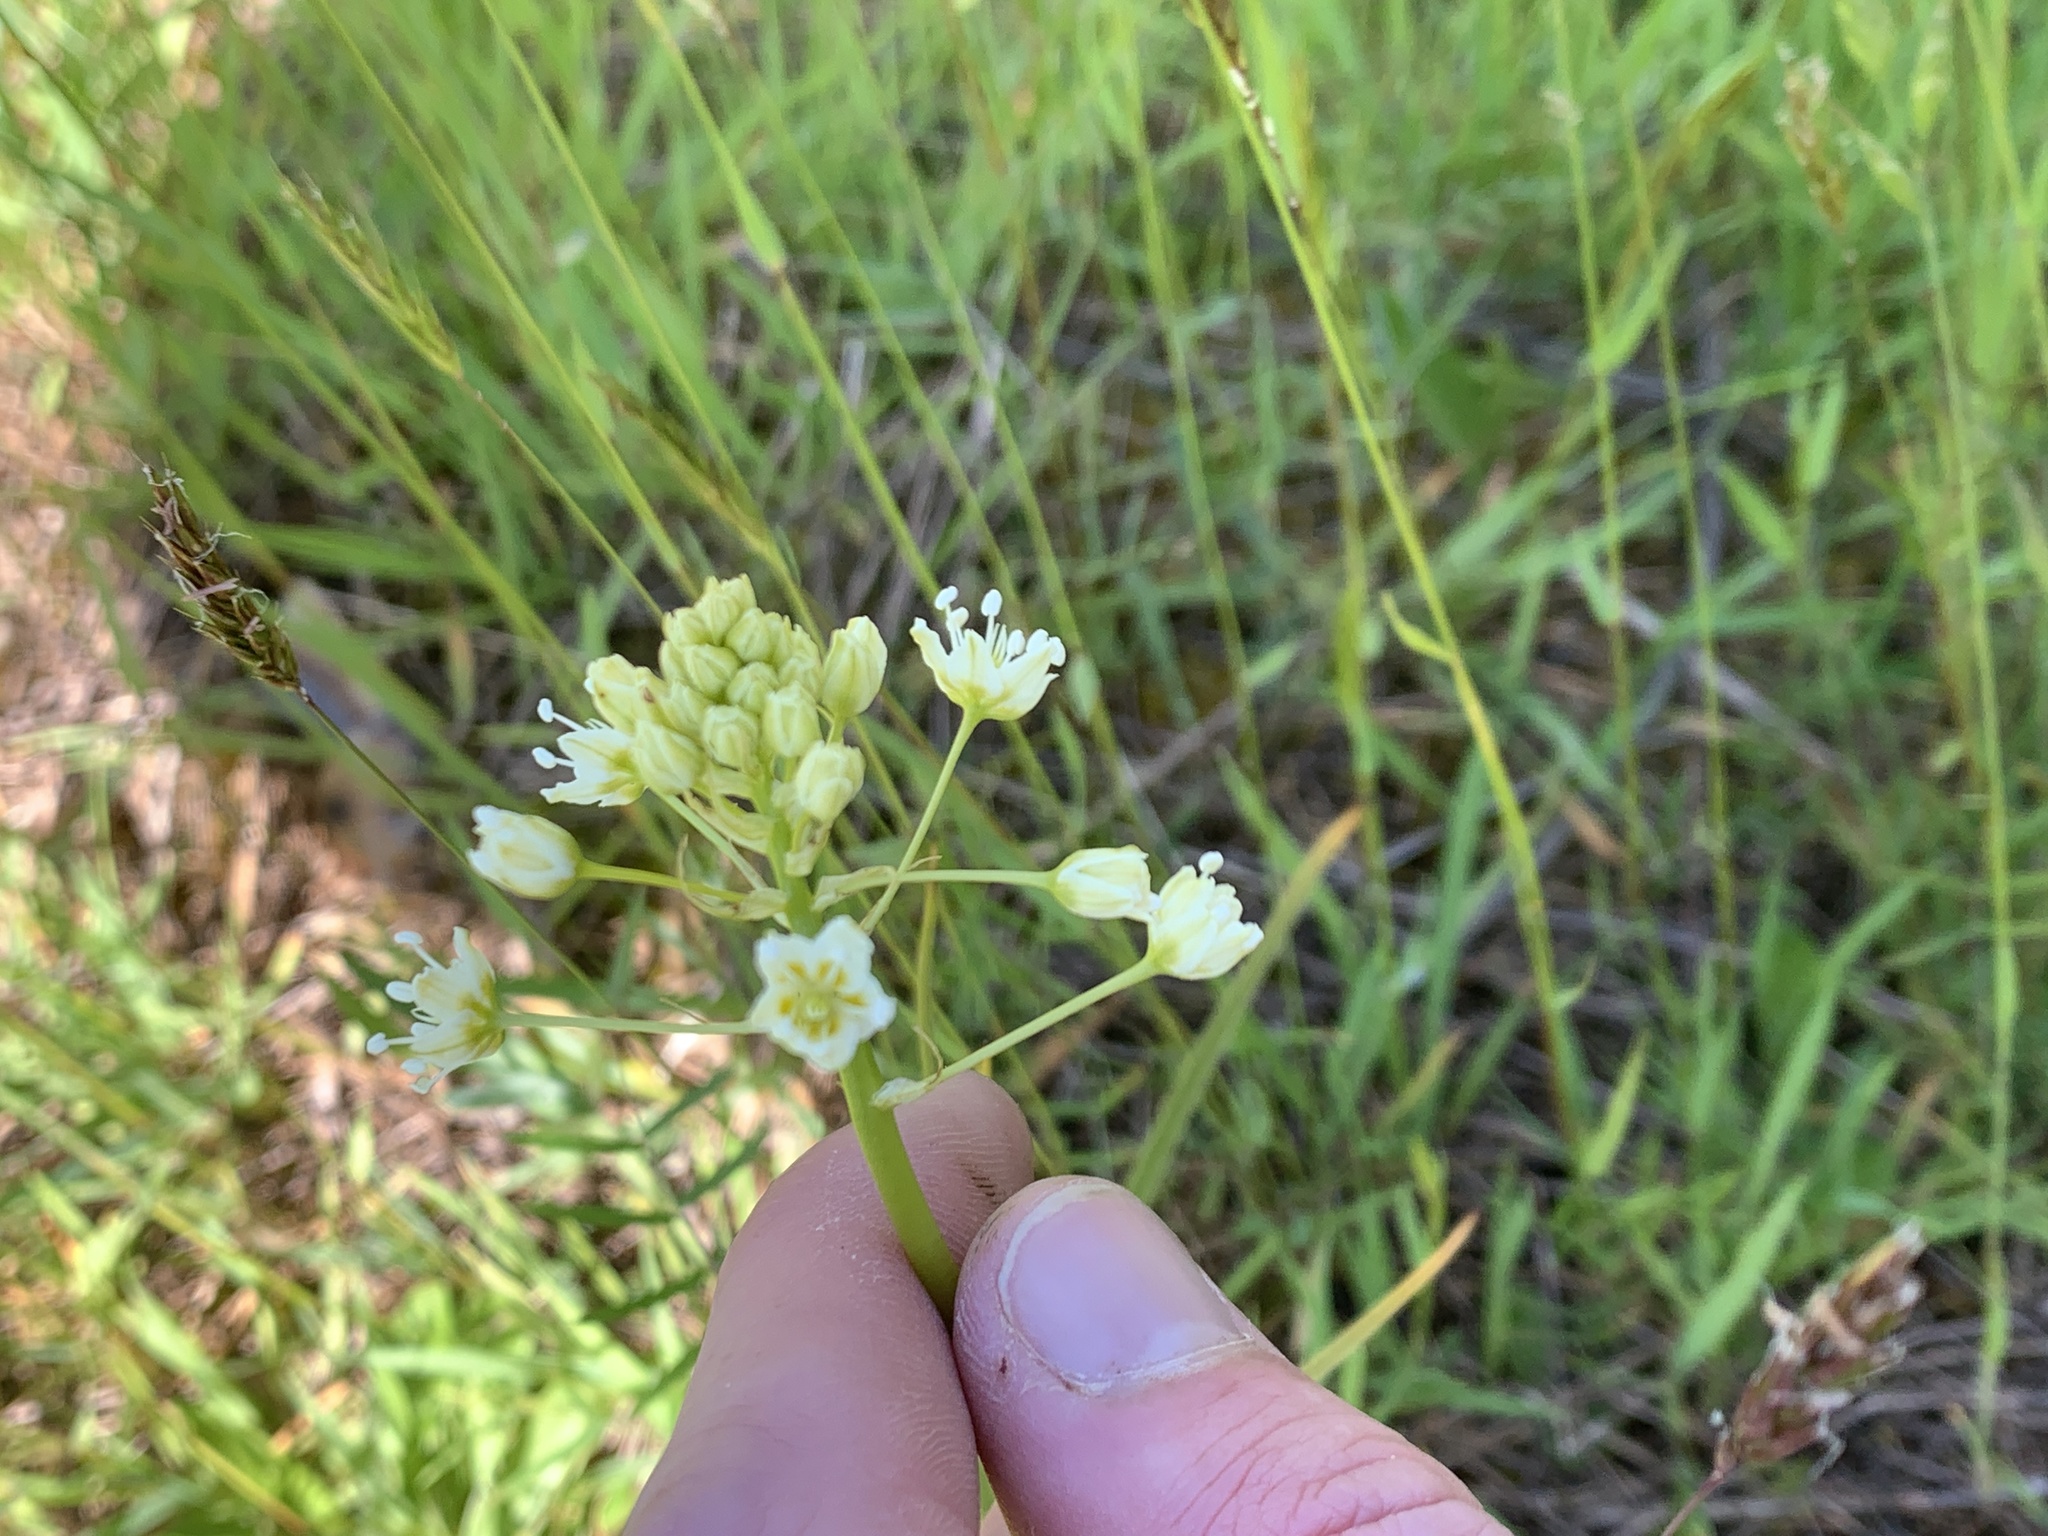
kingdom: Plantae
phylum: Tracheophyta
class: Liliopsida
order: Liliales
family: Melanthiaceae
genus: Toxicoscordion
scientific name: Toxicoscordion venenosum
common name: Meadow death camas
